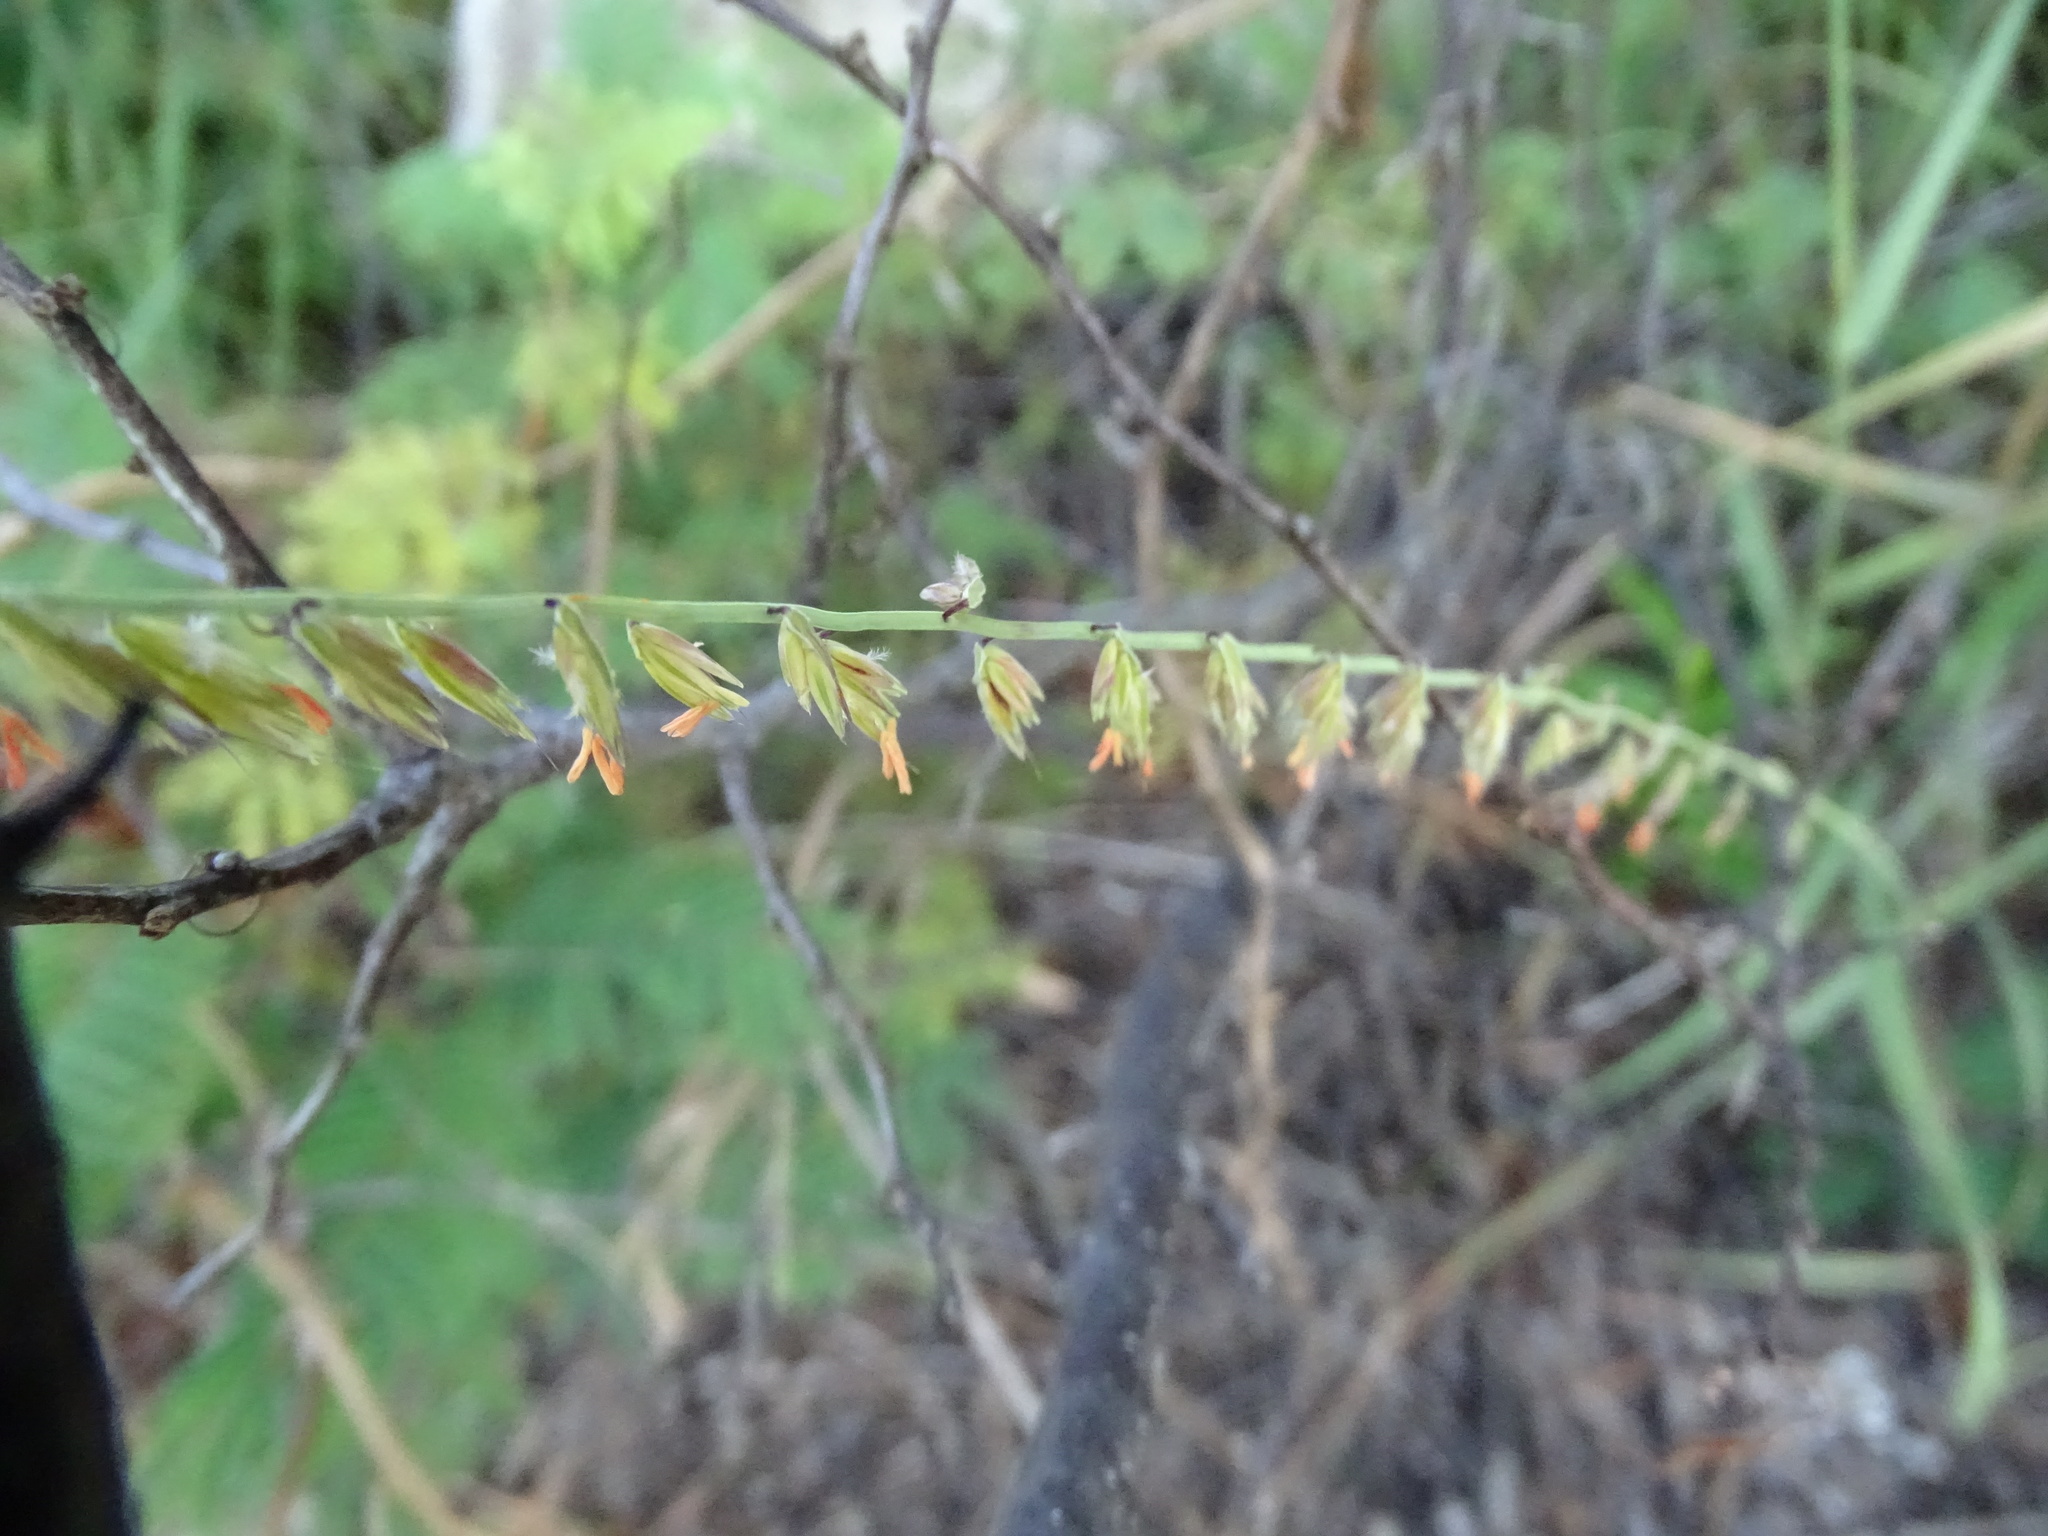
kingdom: Plantae
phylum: Tracheophyta
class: Liliopsida
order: Poales
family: Poaceae
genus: Bouteloua
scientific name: Bouteloua curtipendula
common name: Side-oats grama
